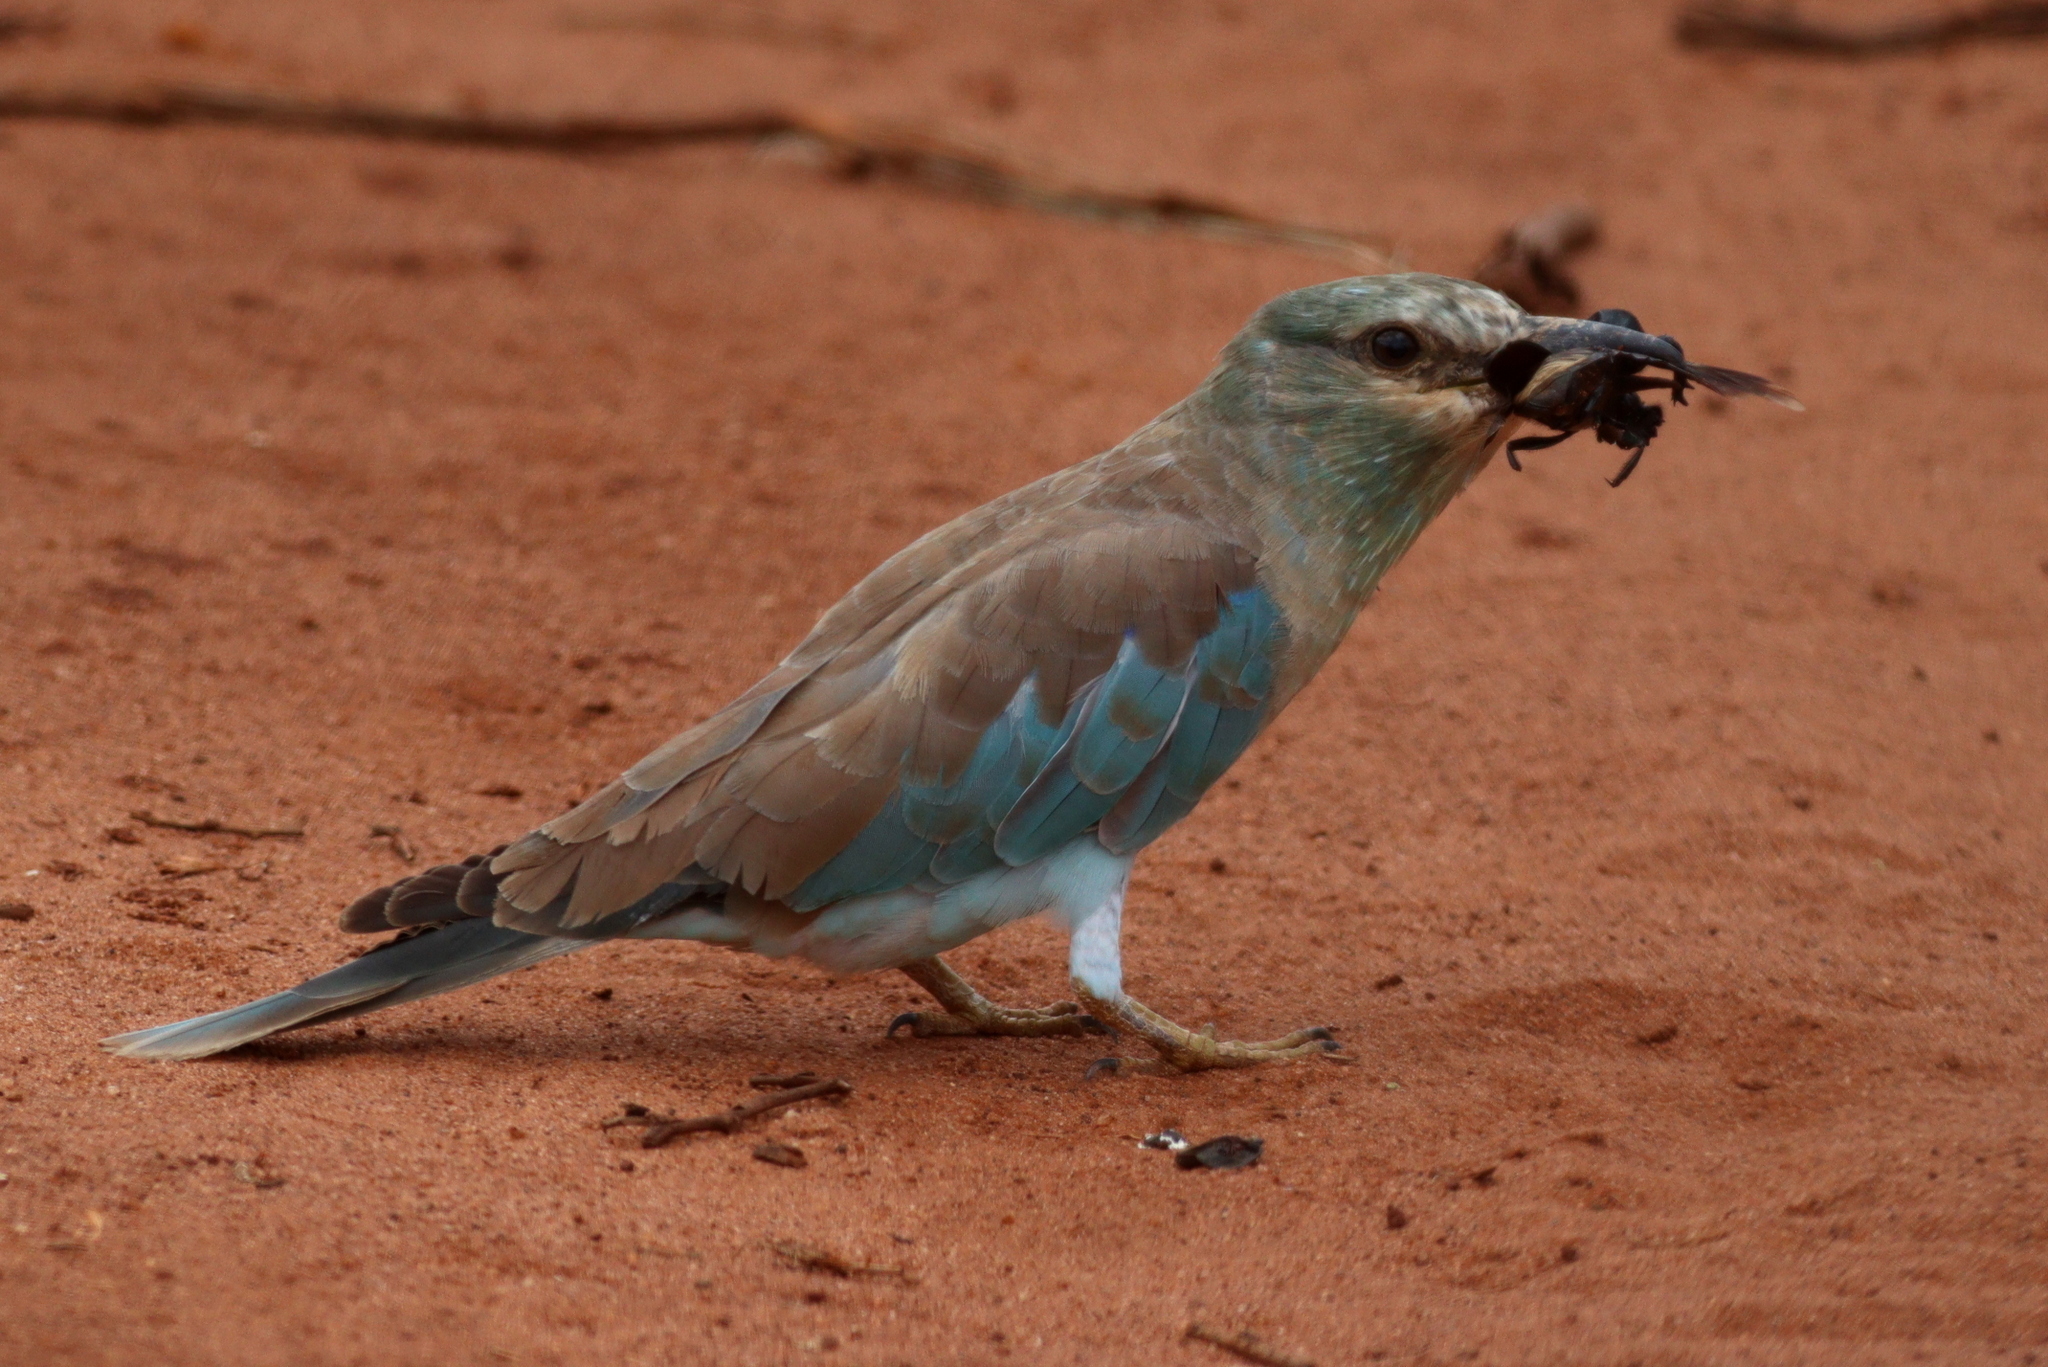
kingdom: Animalia
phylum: Chordata
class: Aves
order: Coraciiformes
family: Coraciidae
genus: Coracias
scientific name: Coracias garrulus
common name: European roller
